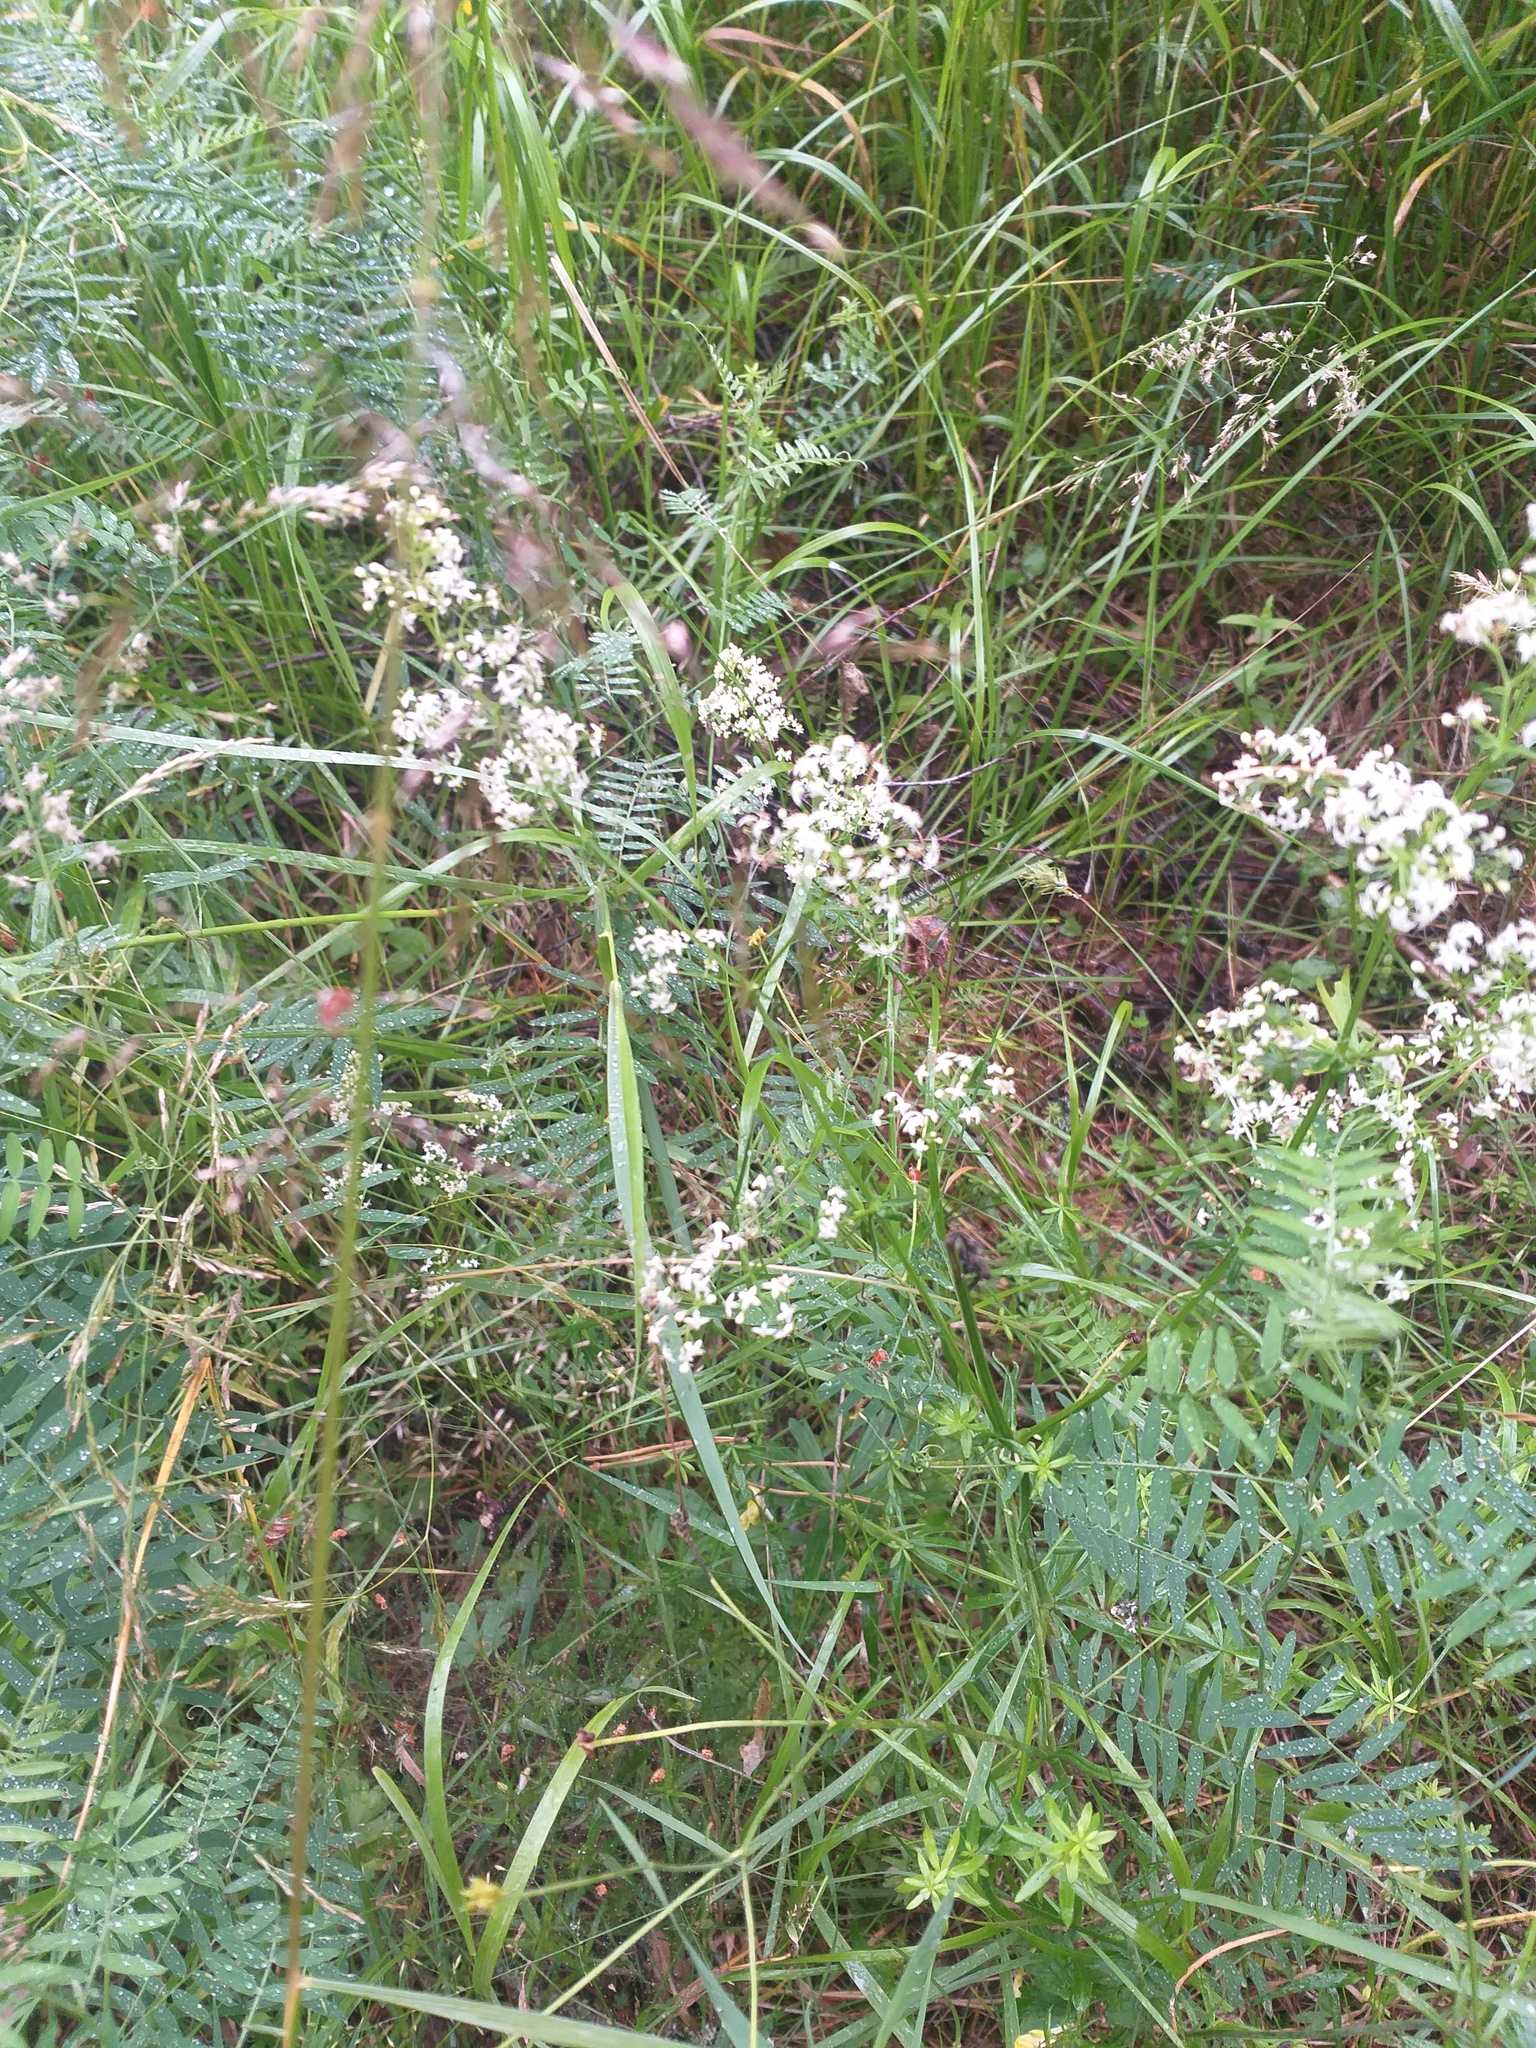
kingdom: Plantae
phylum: Tracheophyta
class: Magnoliopsida
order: Gentianales
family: Rubiaceae
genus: Galium
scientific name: Galium mollugo
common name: Hedge bedstraw
